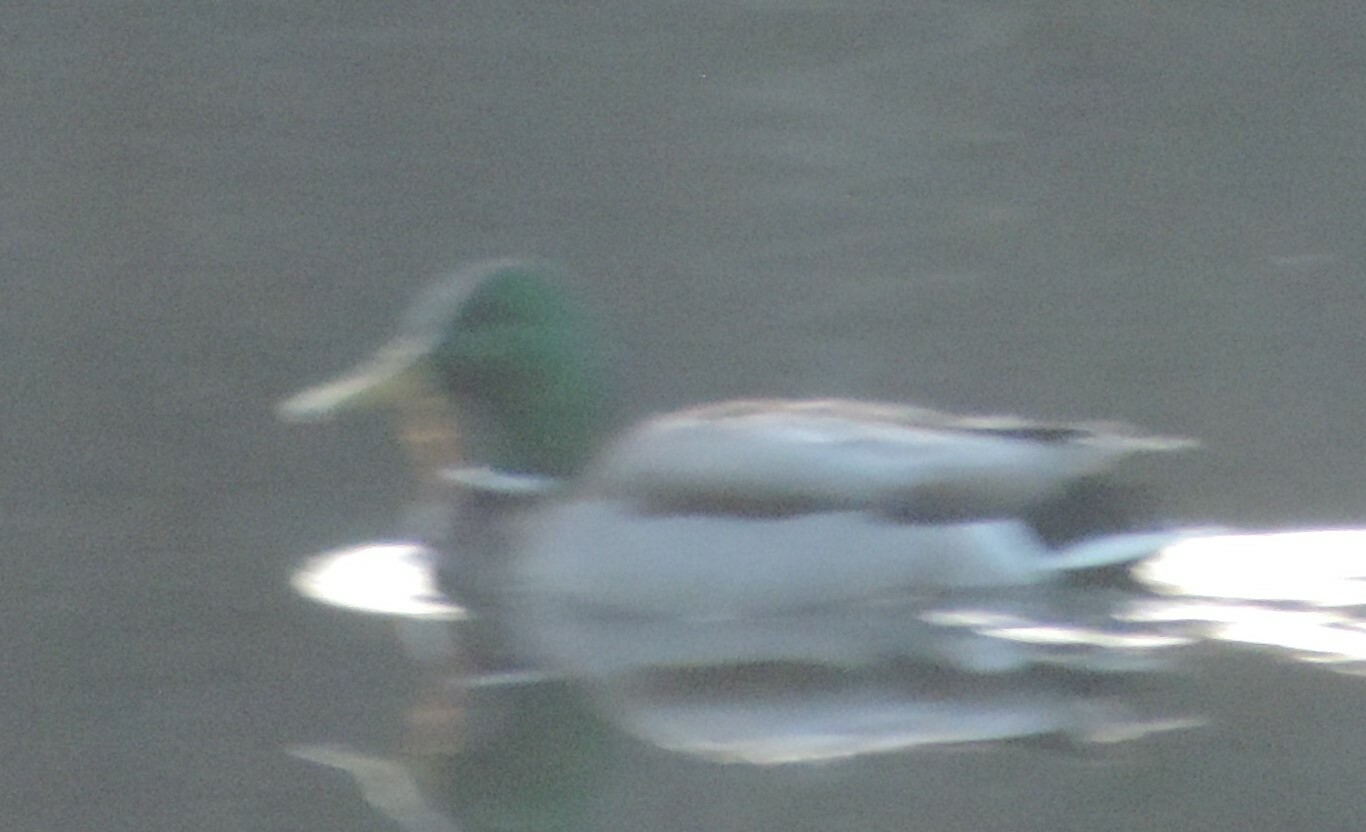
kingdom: Animalia
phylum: Chordata
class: Aves
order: Anseriformes
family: Anatidae
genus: Anas
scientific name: Anas platyrhynchos
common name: Mallard
